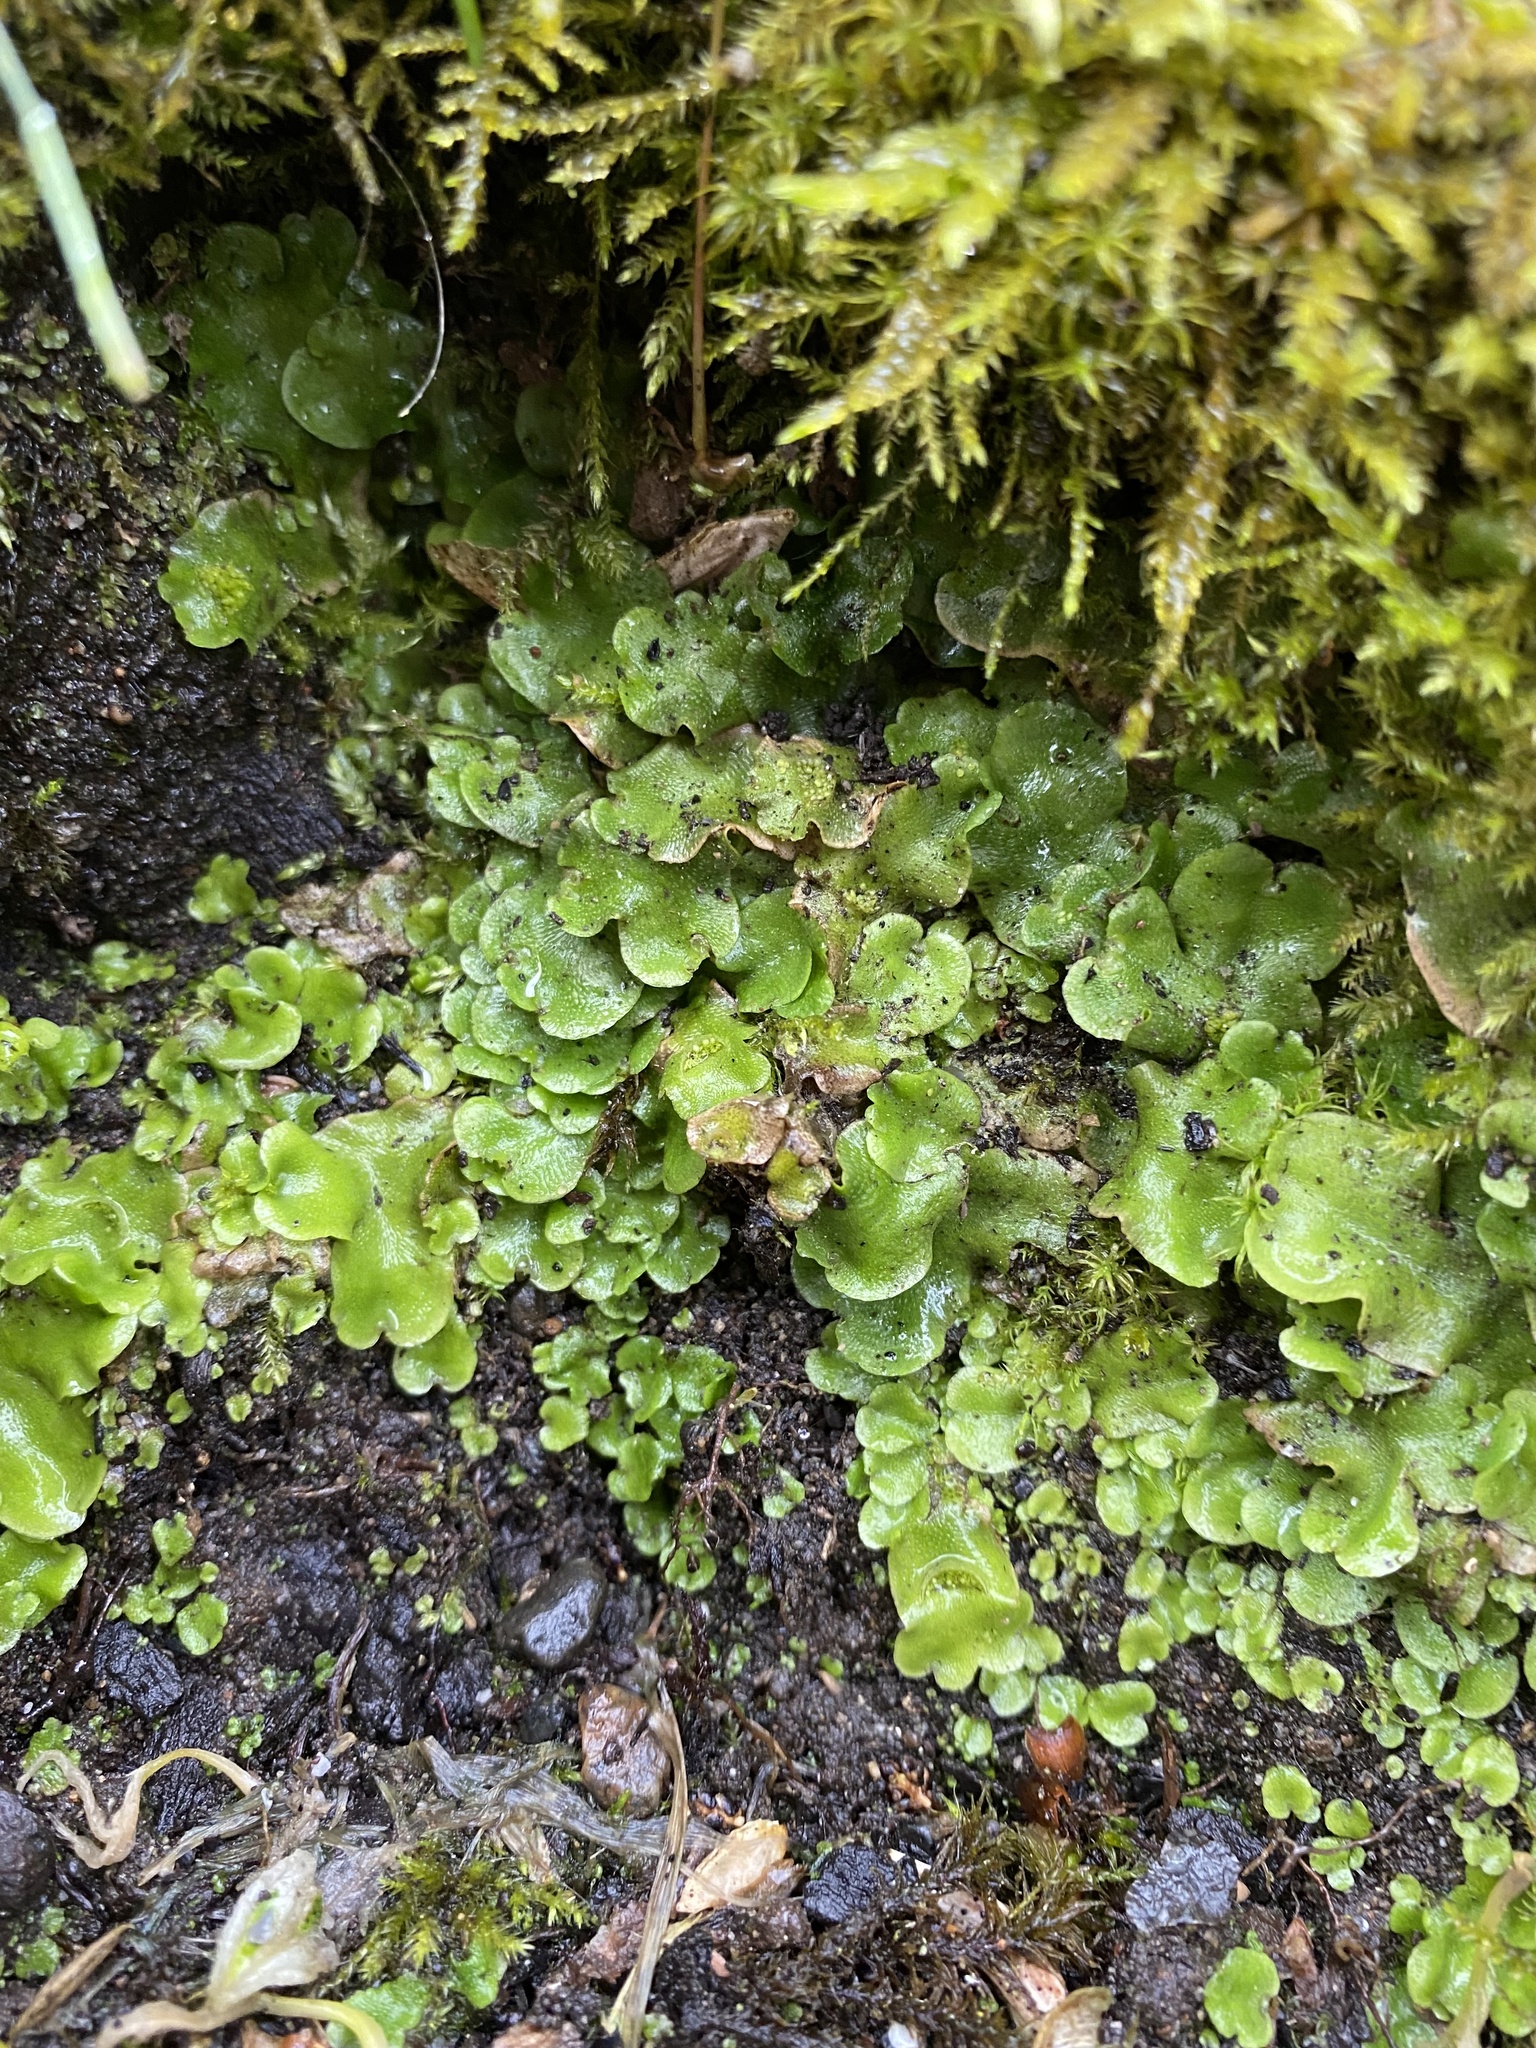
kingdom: Plantae
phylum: Marchantiophyta
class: Marchantiopsida
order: Lunulariales
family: Lunulariaceae
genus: Lunularia
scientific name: Lunularia cruciata
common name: Crescent-cup liverwort
